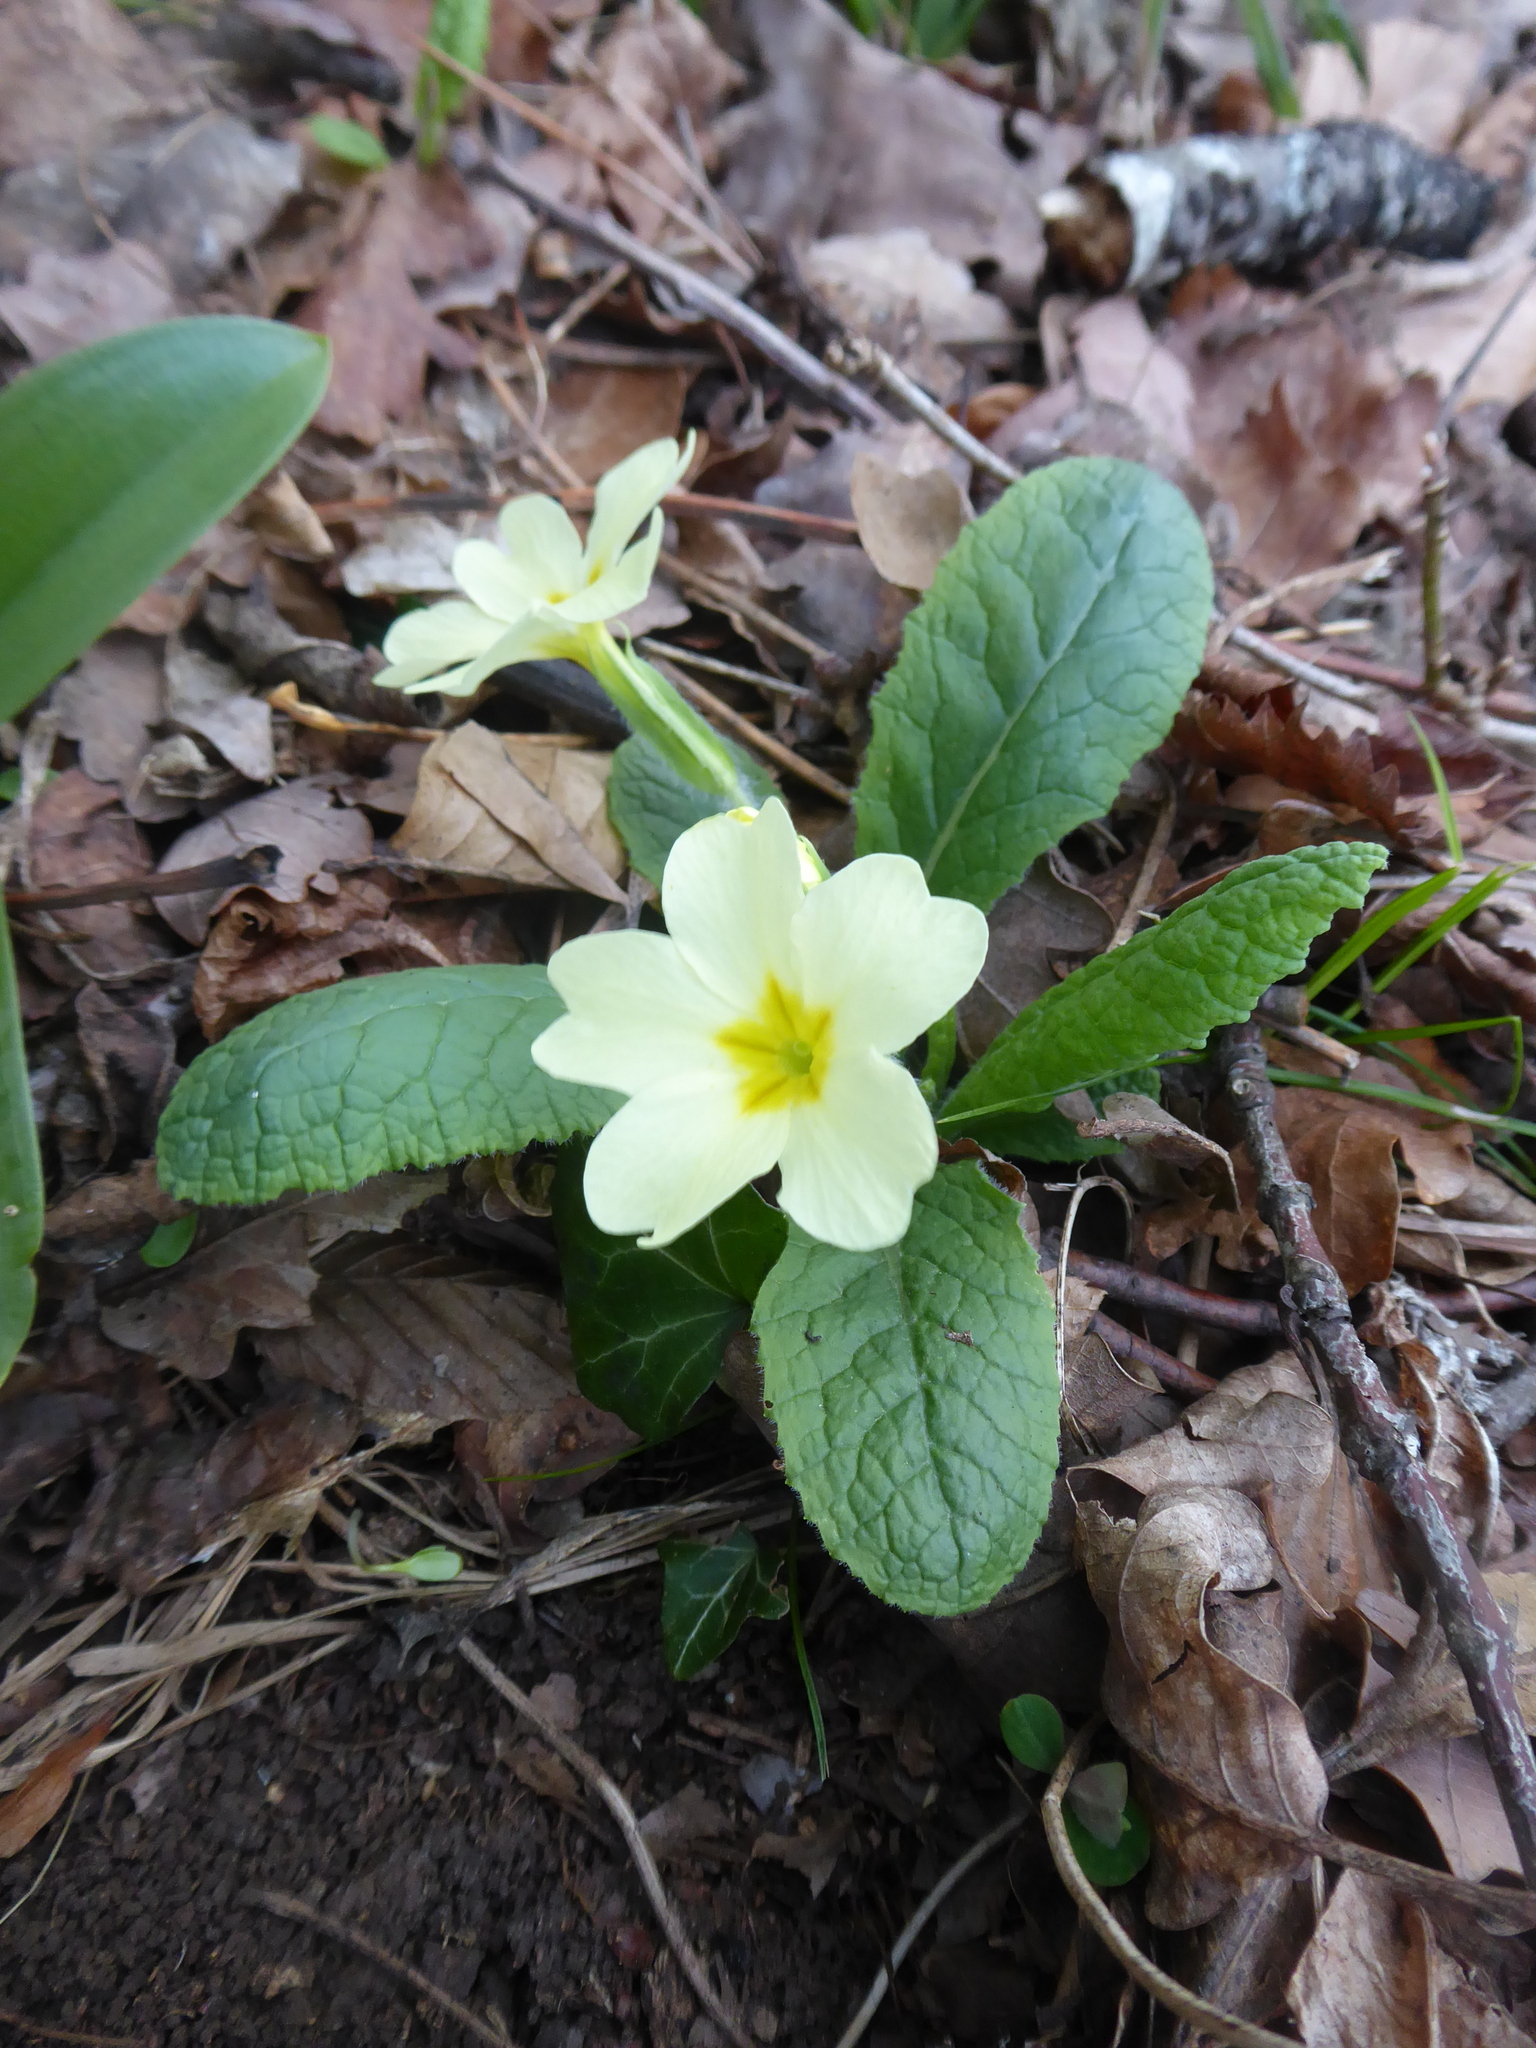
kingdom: Plantae
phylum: Tracheophyta
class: Magnoliopsida
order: Ericales
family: Primulaceae
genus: Primula
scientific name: Primula vulgaris
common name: Primrose
